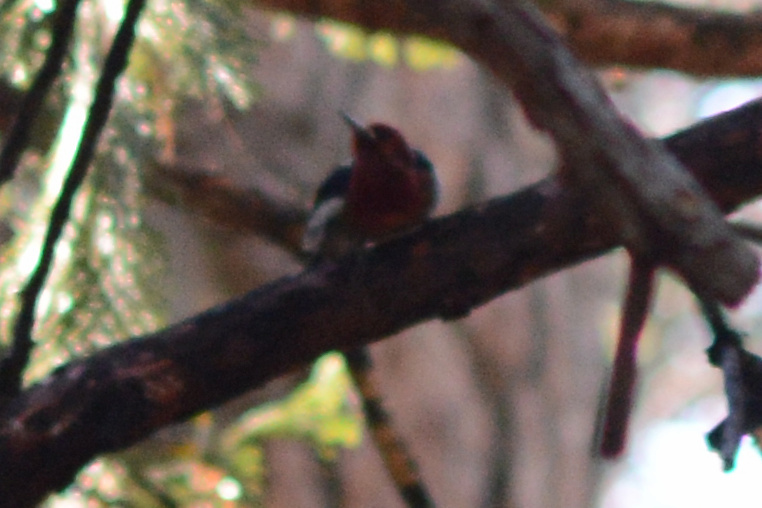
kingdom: Animalia
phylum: Chordata
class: Aves
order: Piciformes
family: Picidae
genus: Sphyrapicus
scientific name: Sphyrapicus ruber
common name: Red-breasted sapsucker
